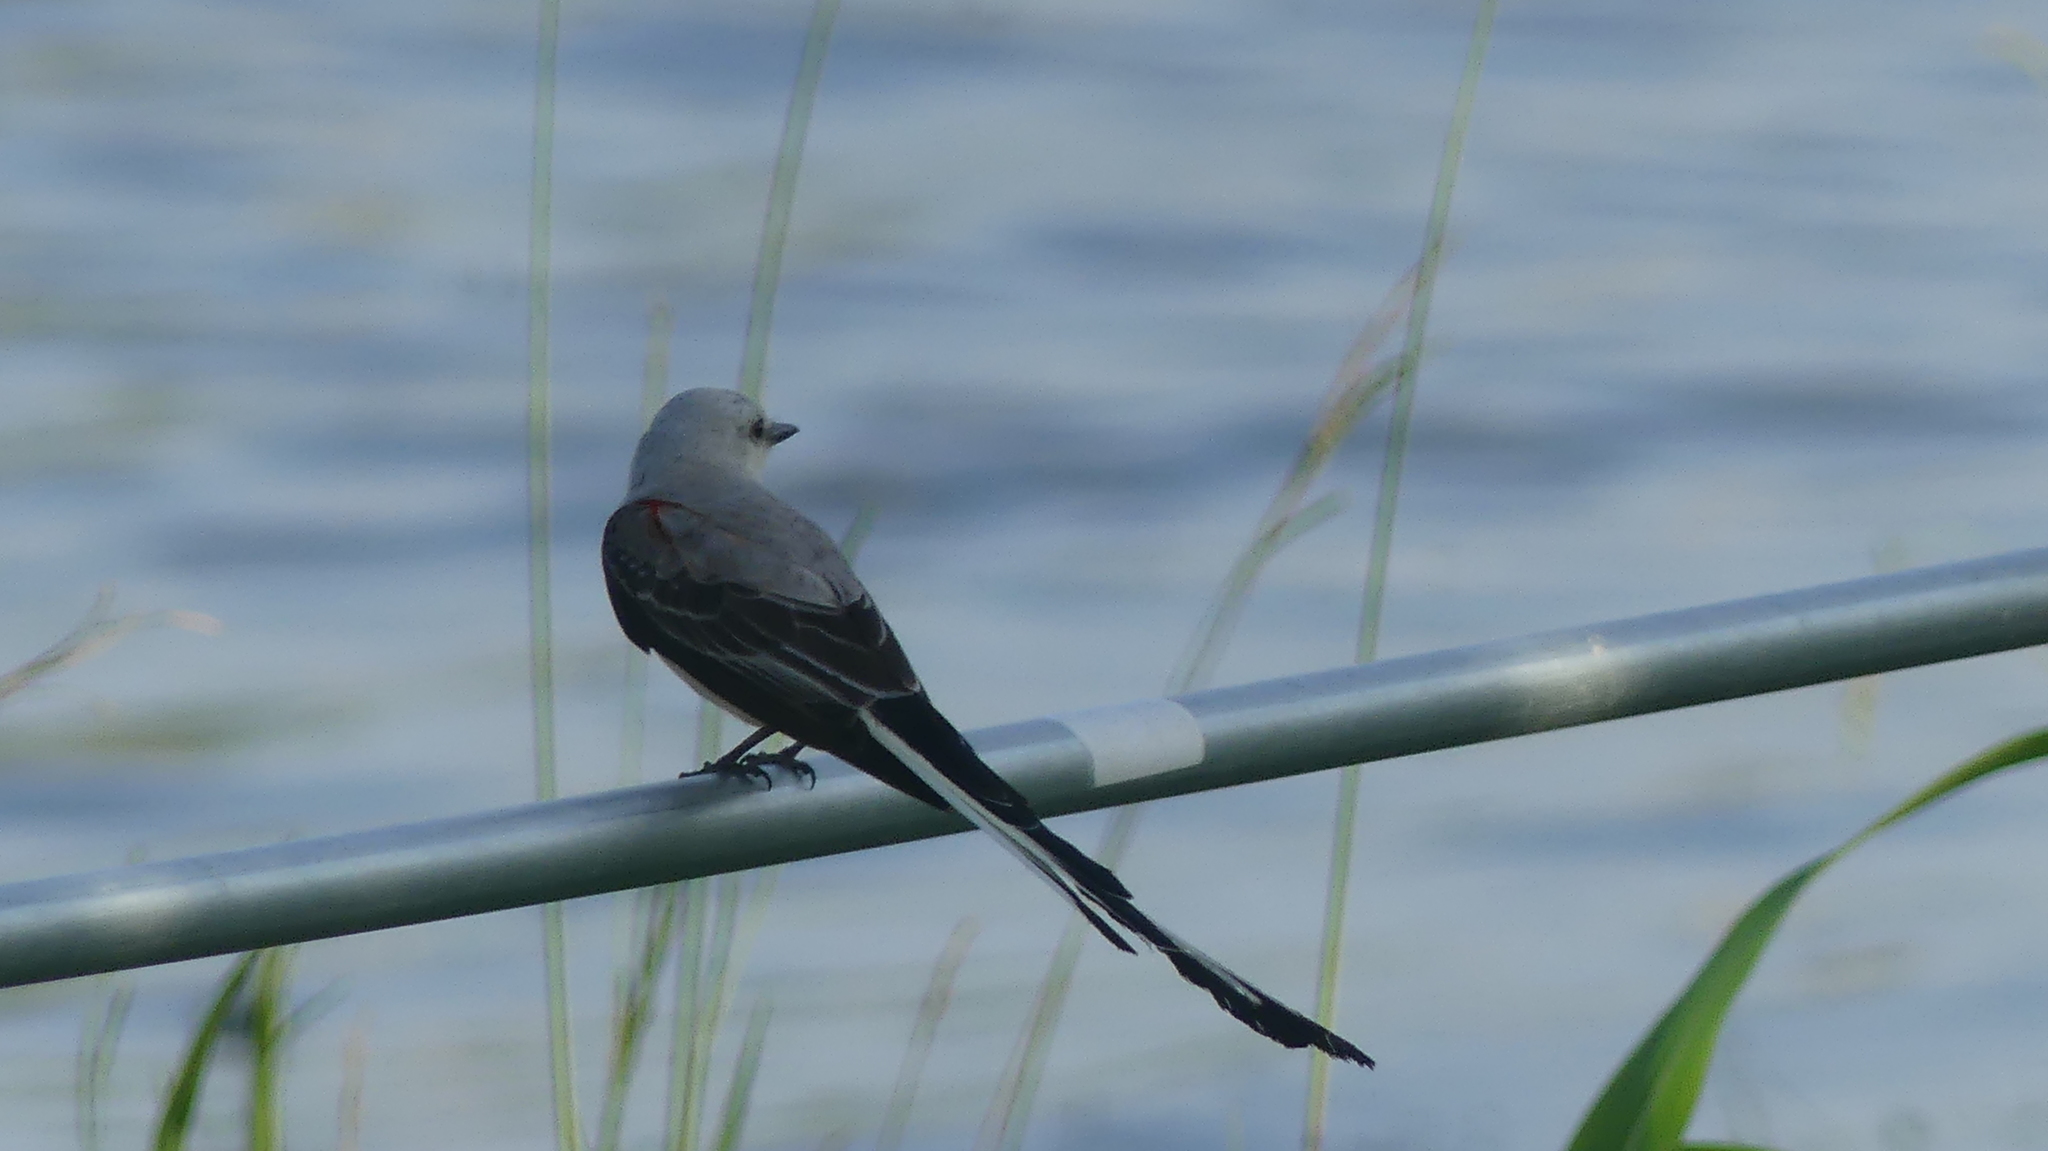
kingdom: Animalia
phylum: Chordata
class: Aves
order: Passeriformes
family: Tyrannidae
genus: Tyrannus
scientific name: Tyrannus forficatus
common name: Scissor-tailed flycatcher
